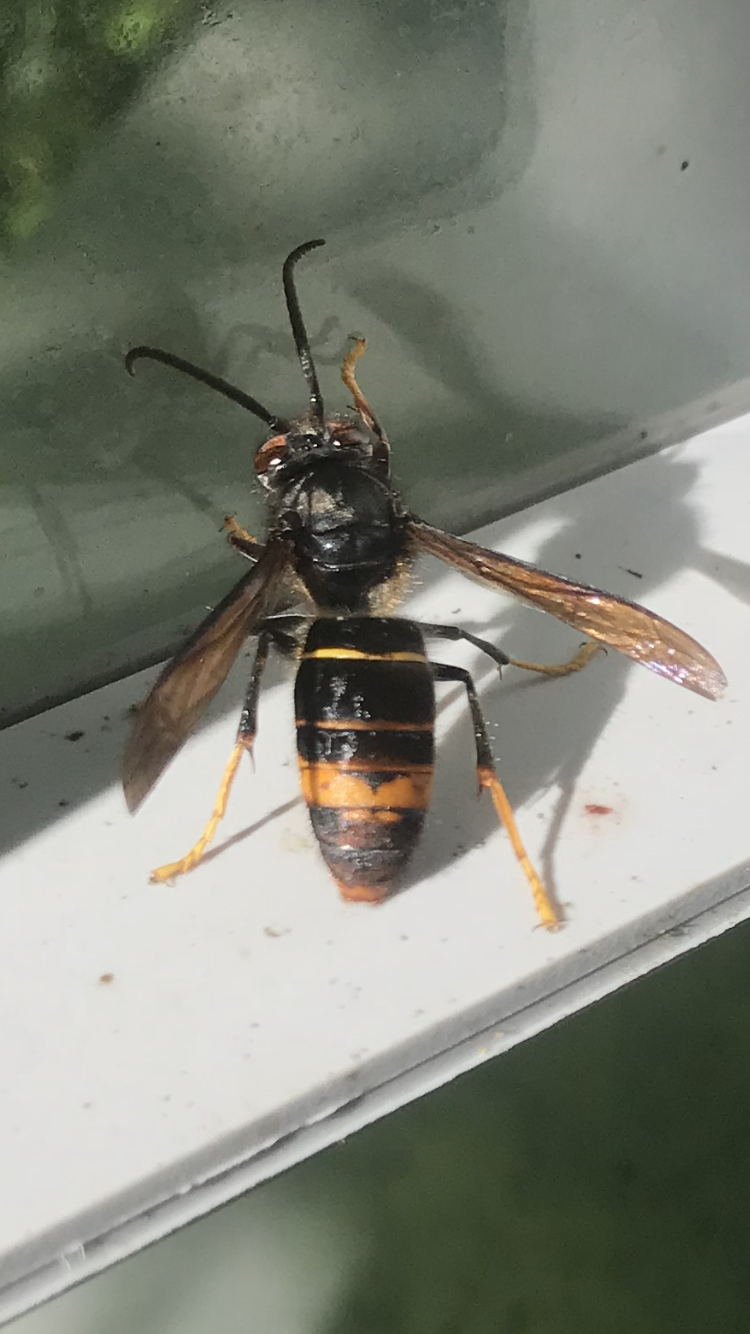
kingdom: Animalia
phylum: Arthropoda
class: Insecta
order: Hymenoptera
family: Vespidae
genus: Vespa
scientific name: Vespa velutina
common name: Asian hornet
